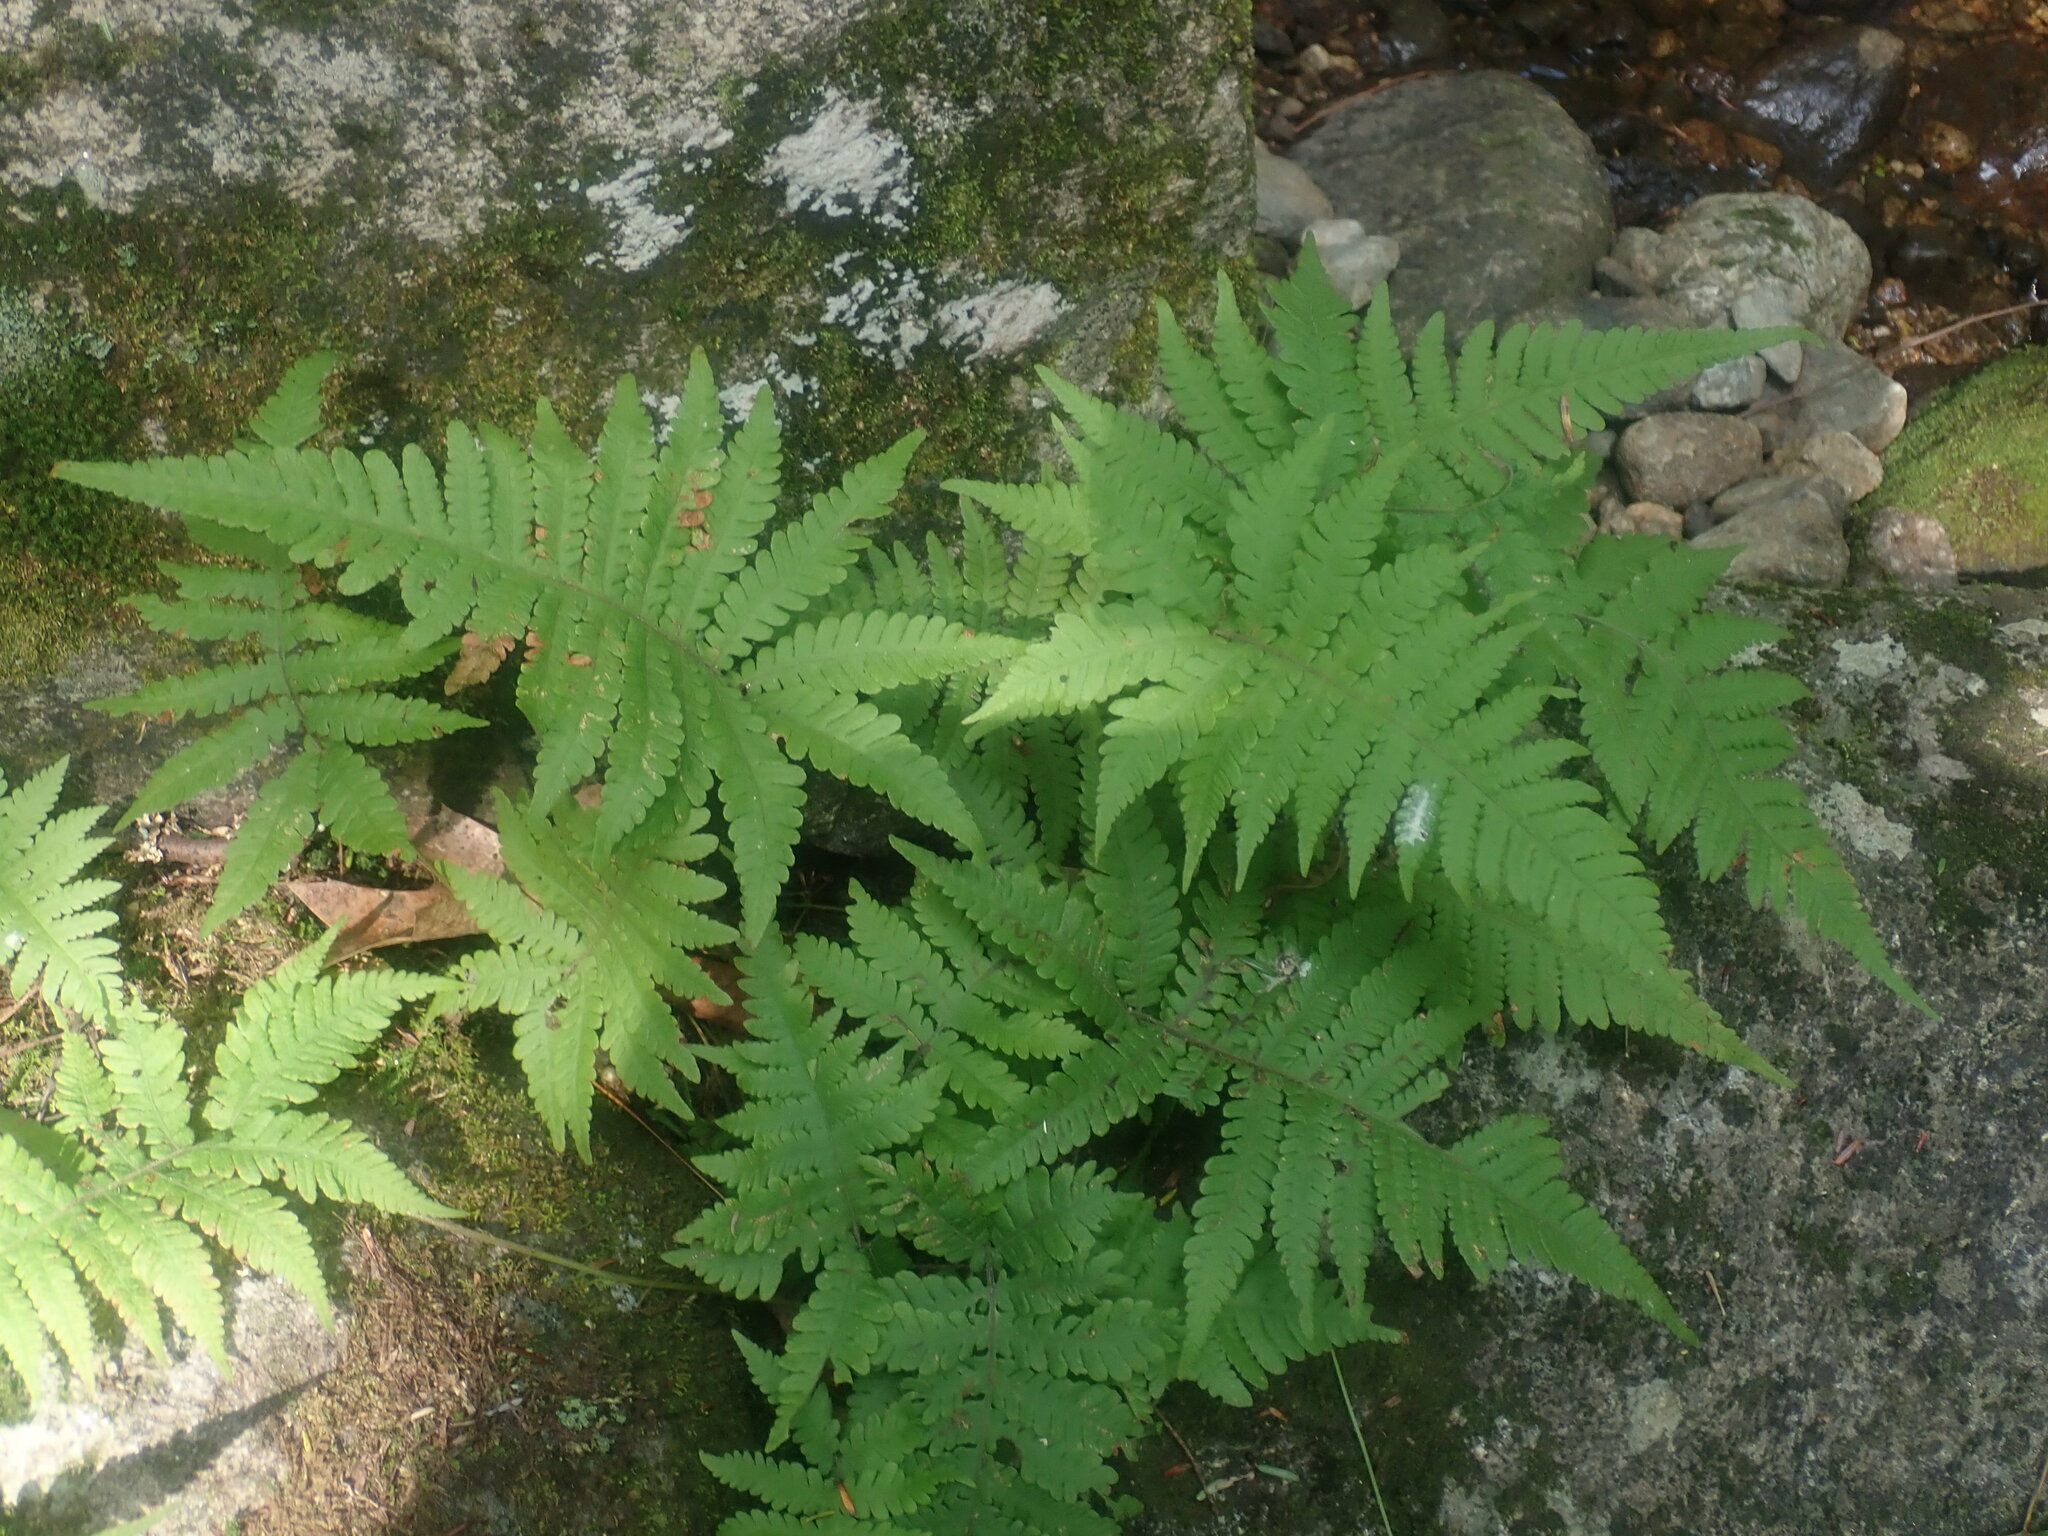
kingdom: Plantae
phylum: Tracheophyta
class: Polypodiopsida
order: Polypodiales
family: Thelypteridaceae
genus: Phegopteris
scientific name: Phegopteris connectilis
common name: Beech fern
